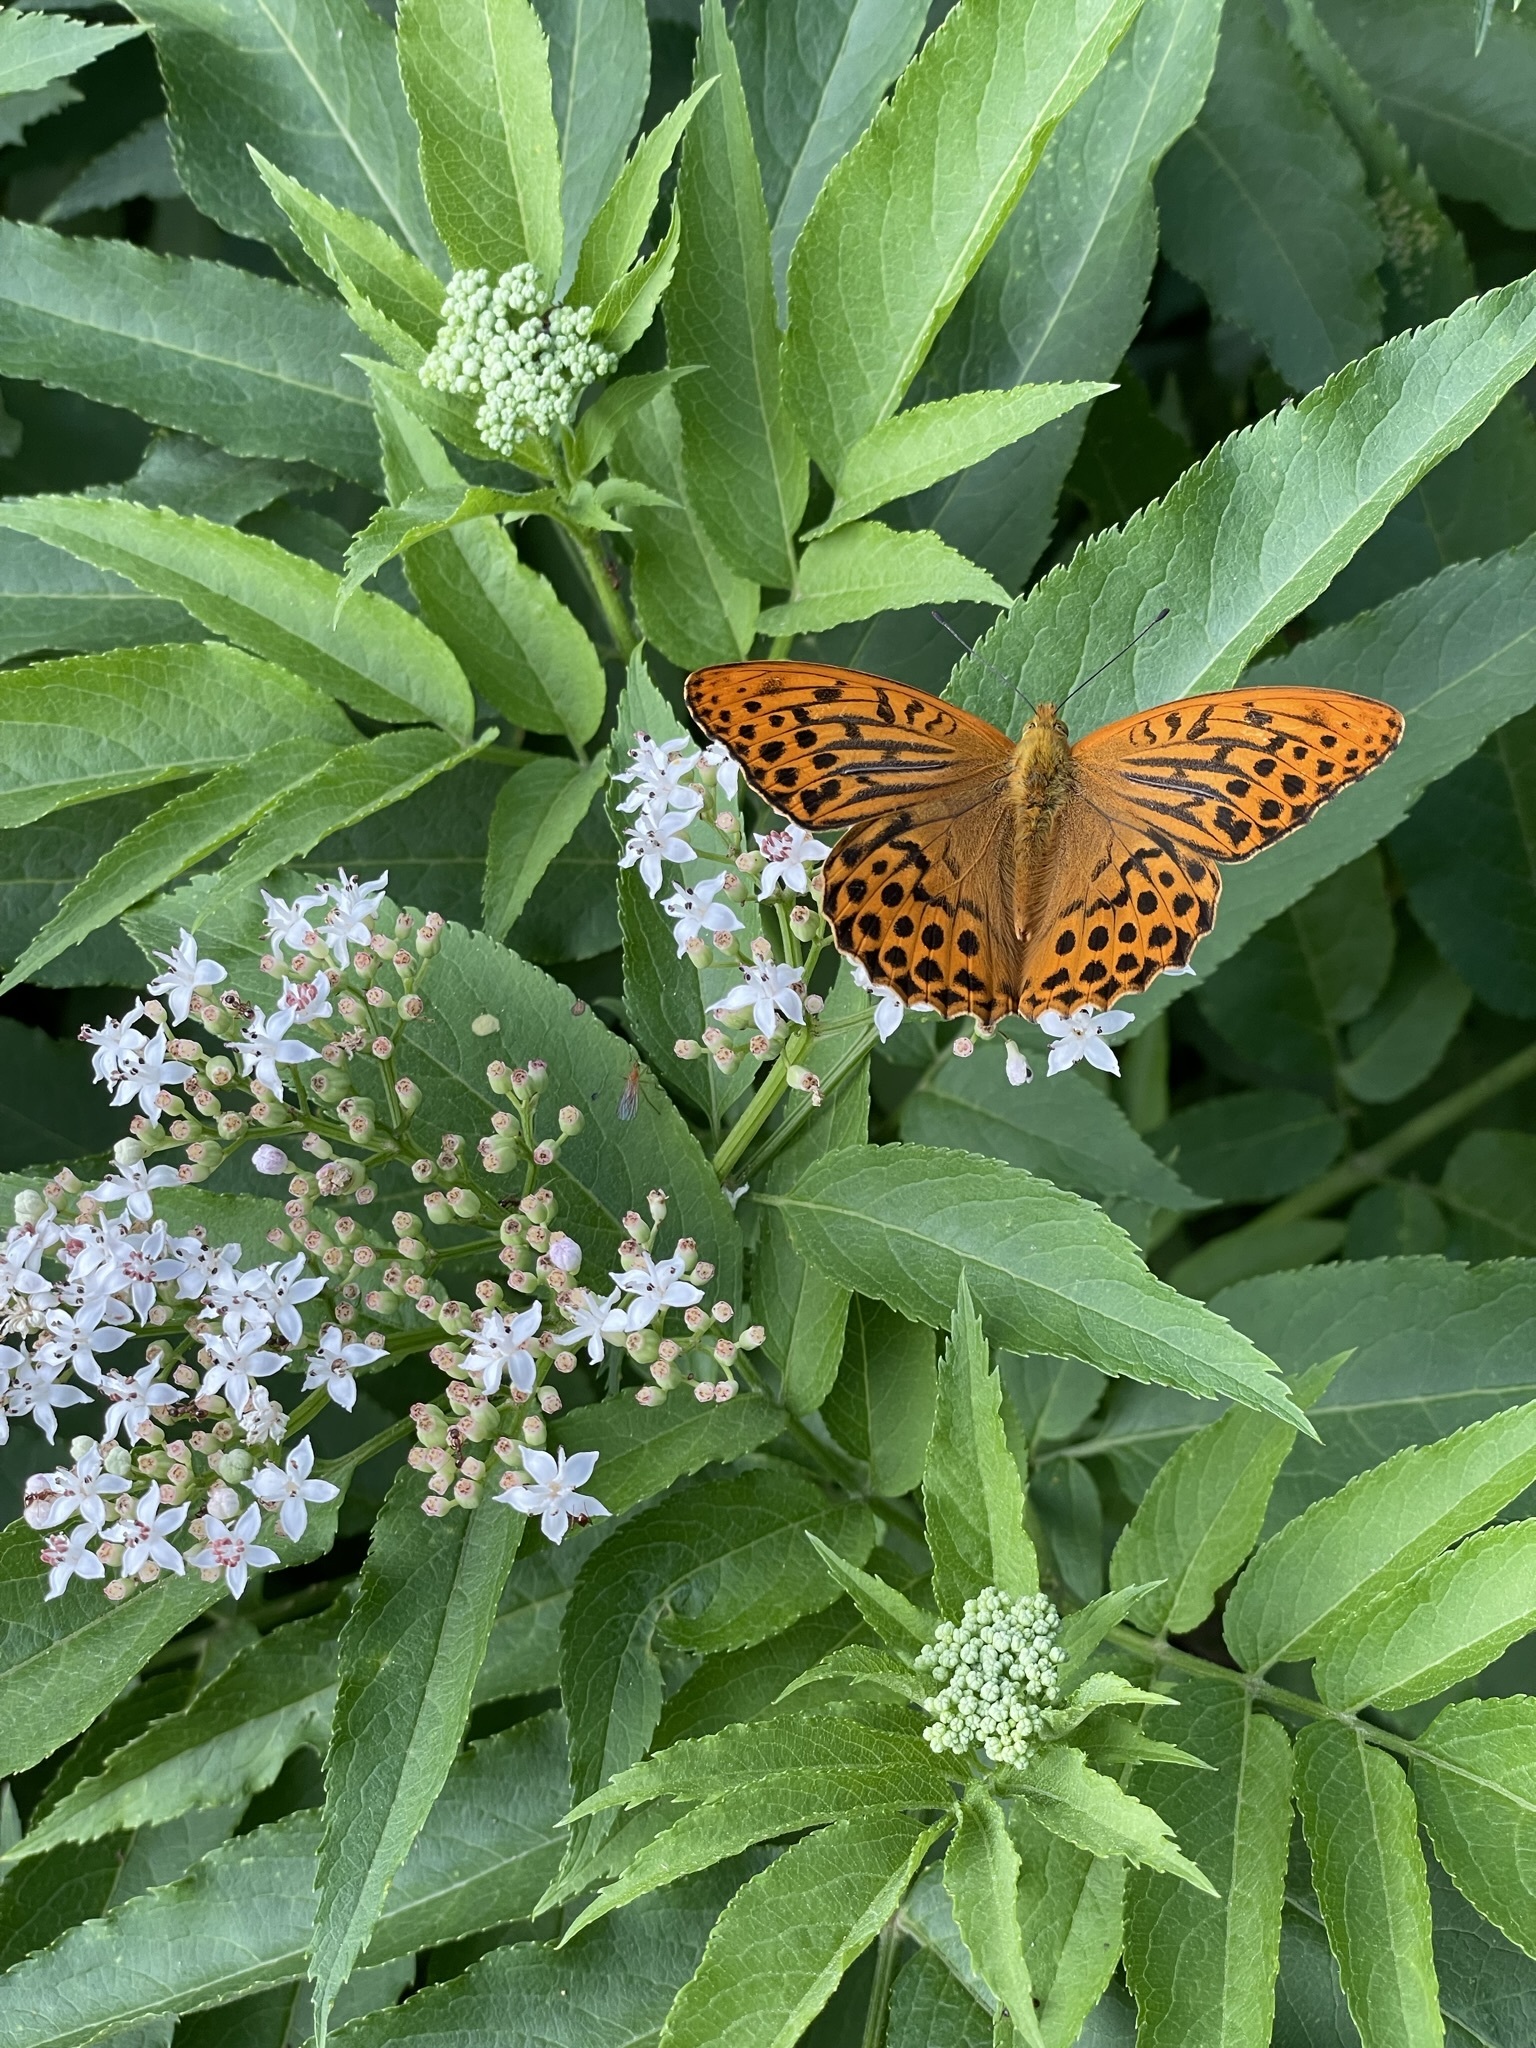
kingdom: Animalia
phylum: Arthropoda
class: Insecta
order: Lepidoptera
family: Nymphalidae
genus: Argynnis
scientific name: Argynnis paphia
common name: Silver-washed fritillary
